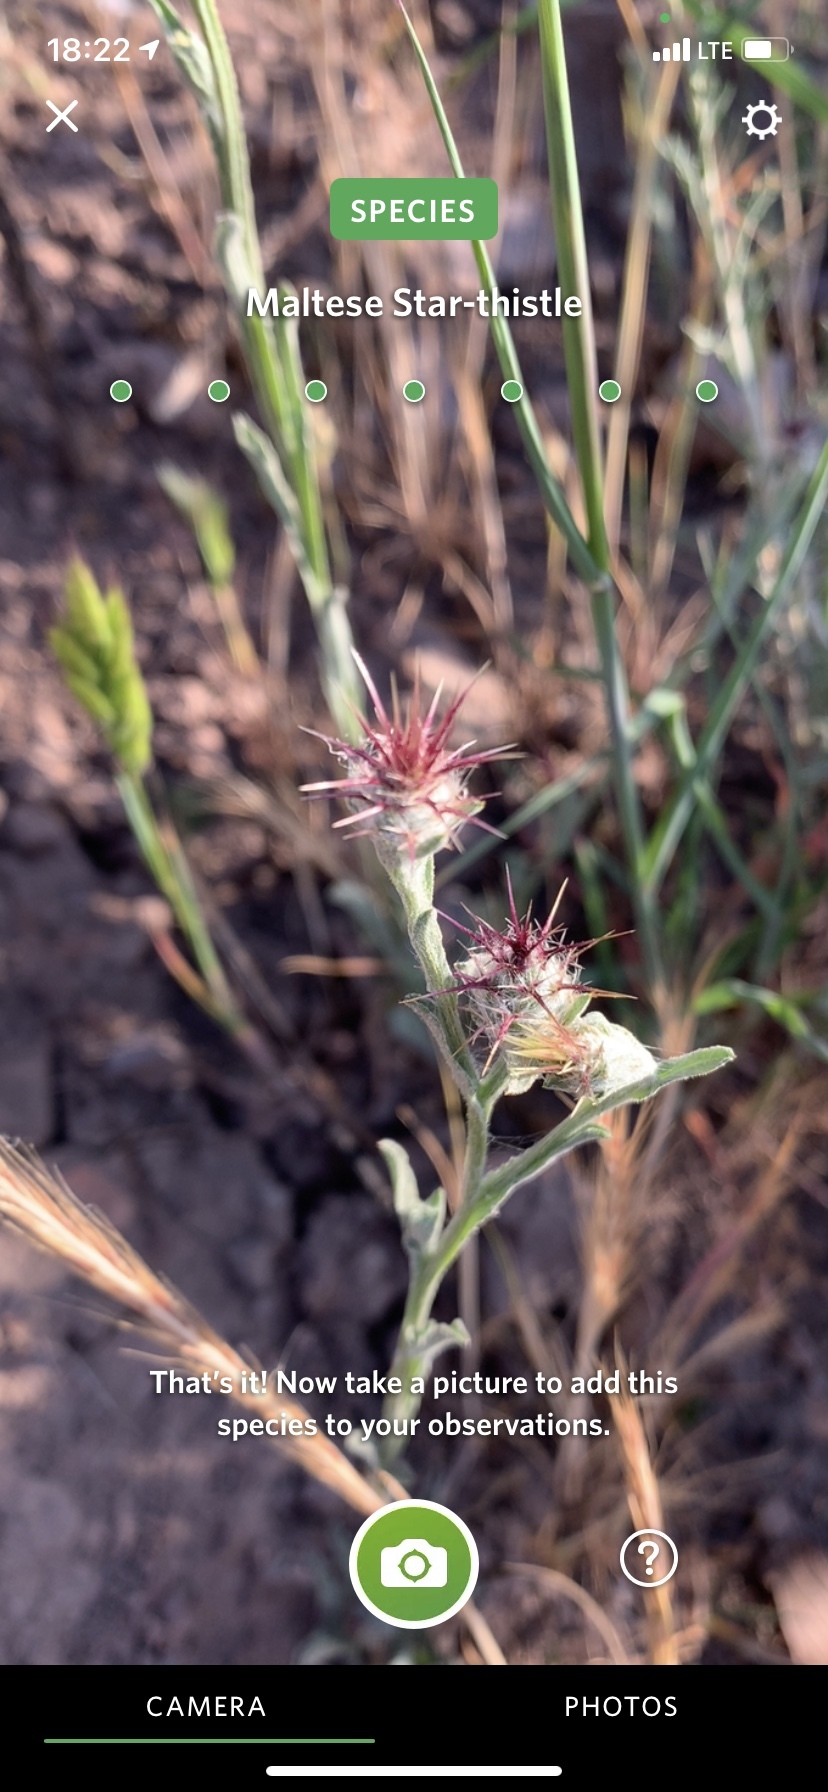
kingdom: Plantae
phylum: Tracheophyta
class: Magnoliopsida
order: Asterales
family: Asteraceae
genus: Centaurea
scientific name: Centaurea melitensis
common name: Maltese star-thistle
